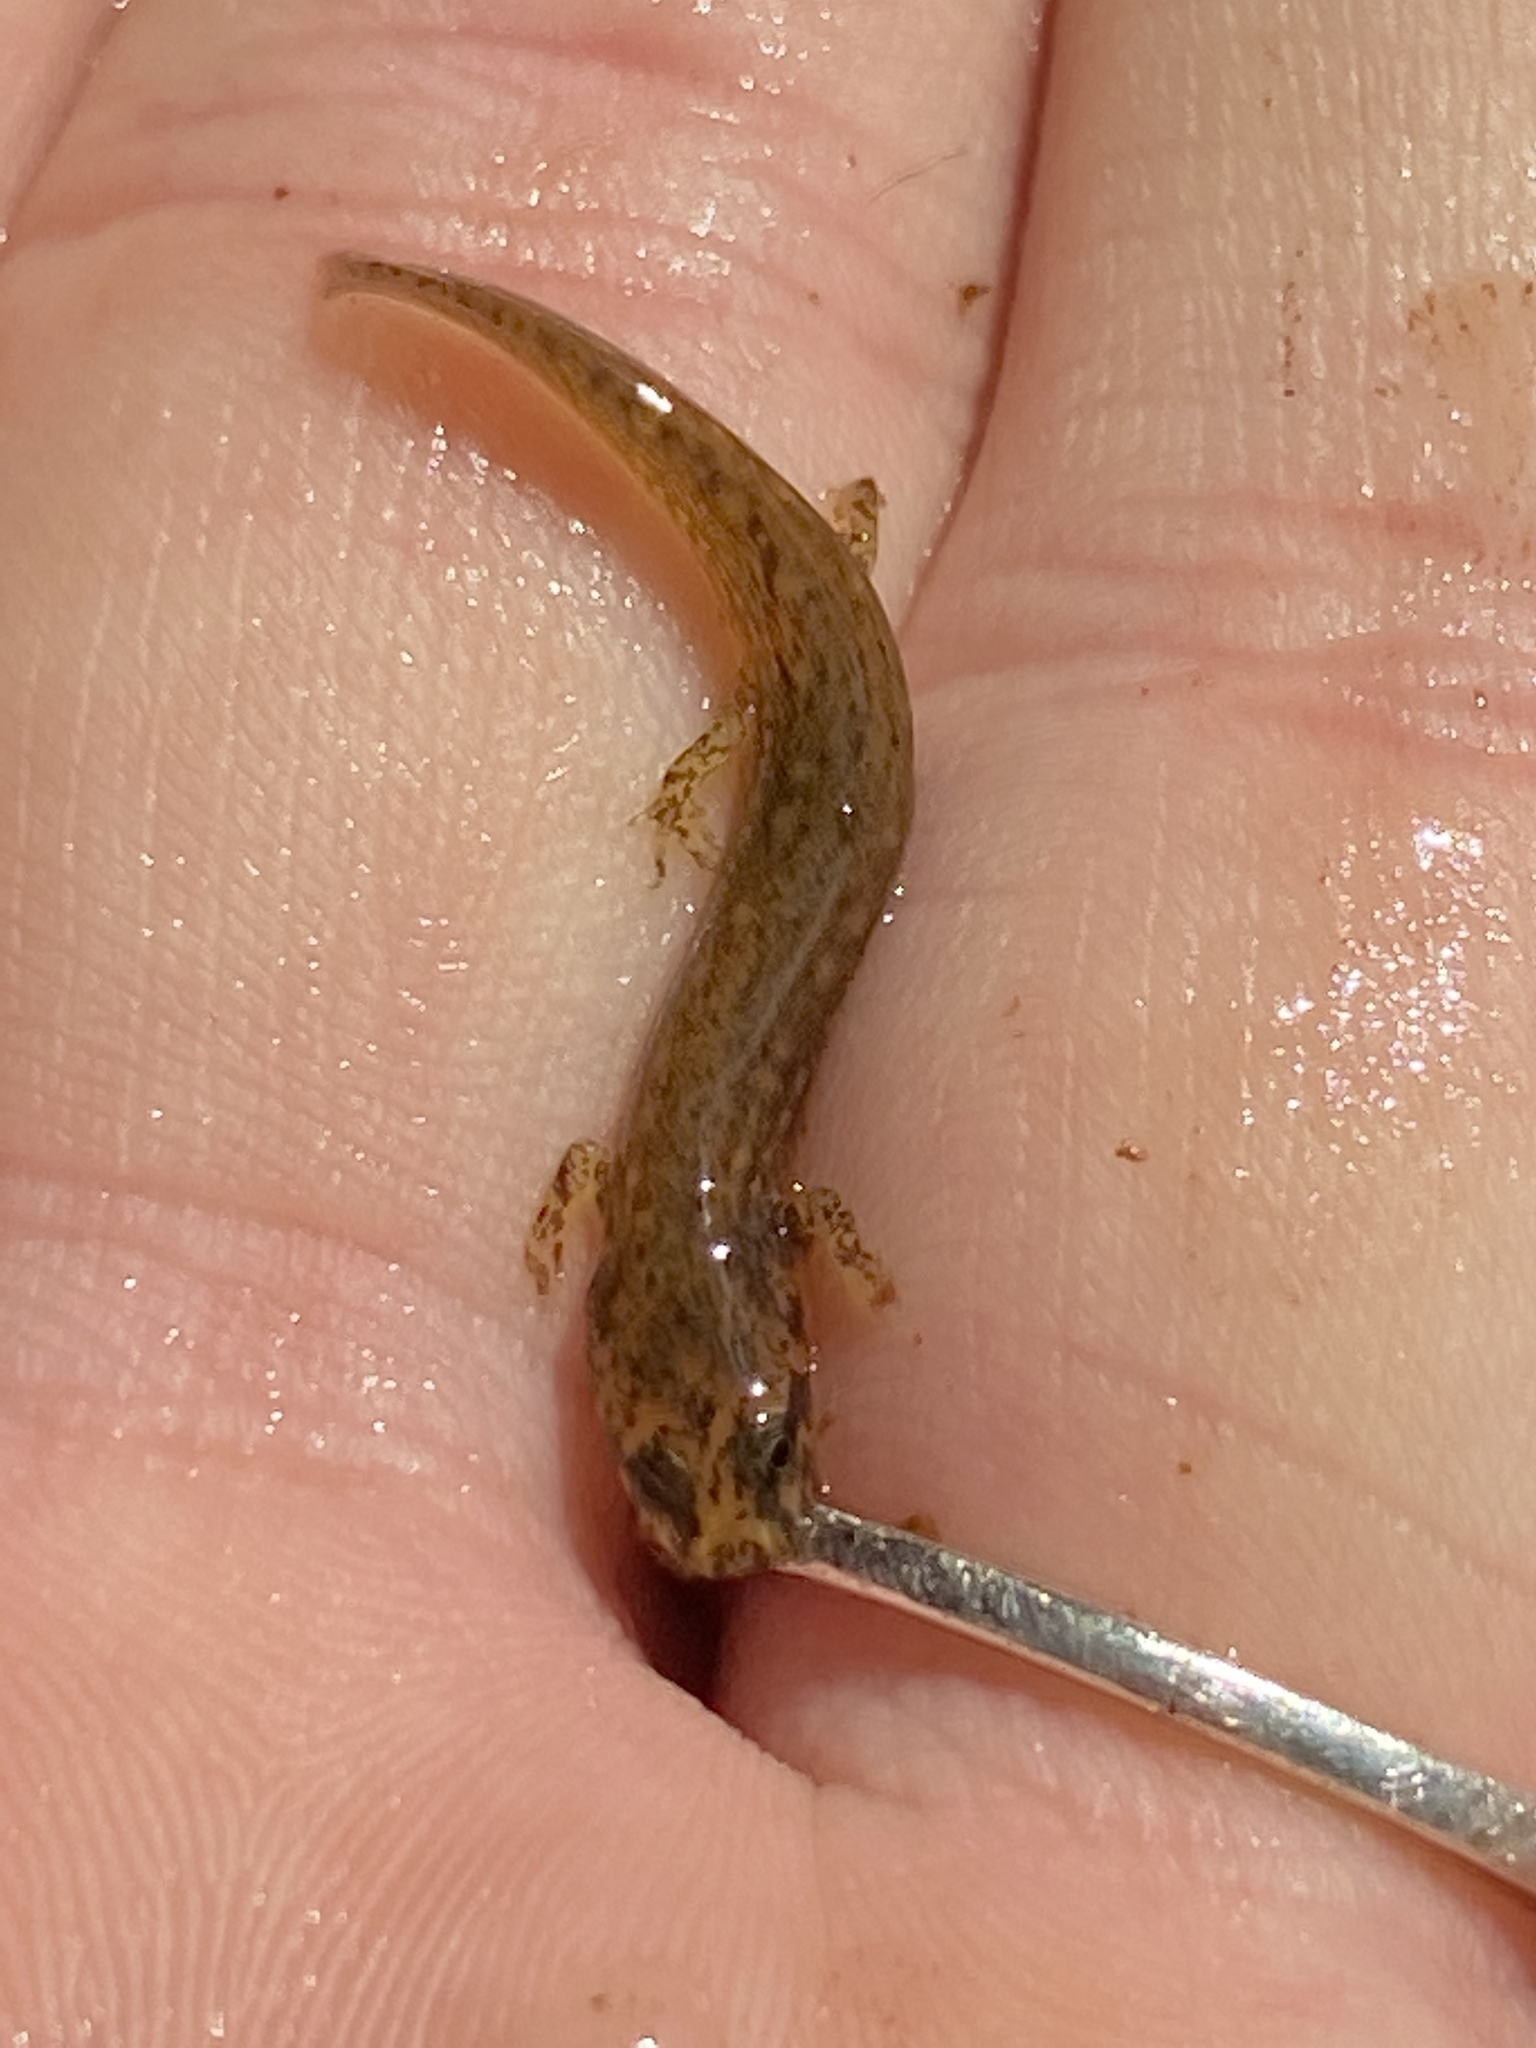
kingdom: Animalia
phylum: Chordata
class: Amphibia
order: Caudata
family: Plethodontidae
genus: Eurycea
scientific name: Eurycea cirrigera
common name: Southern two-lined salamander
